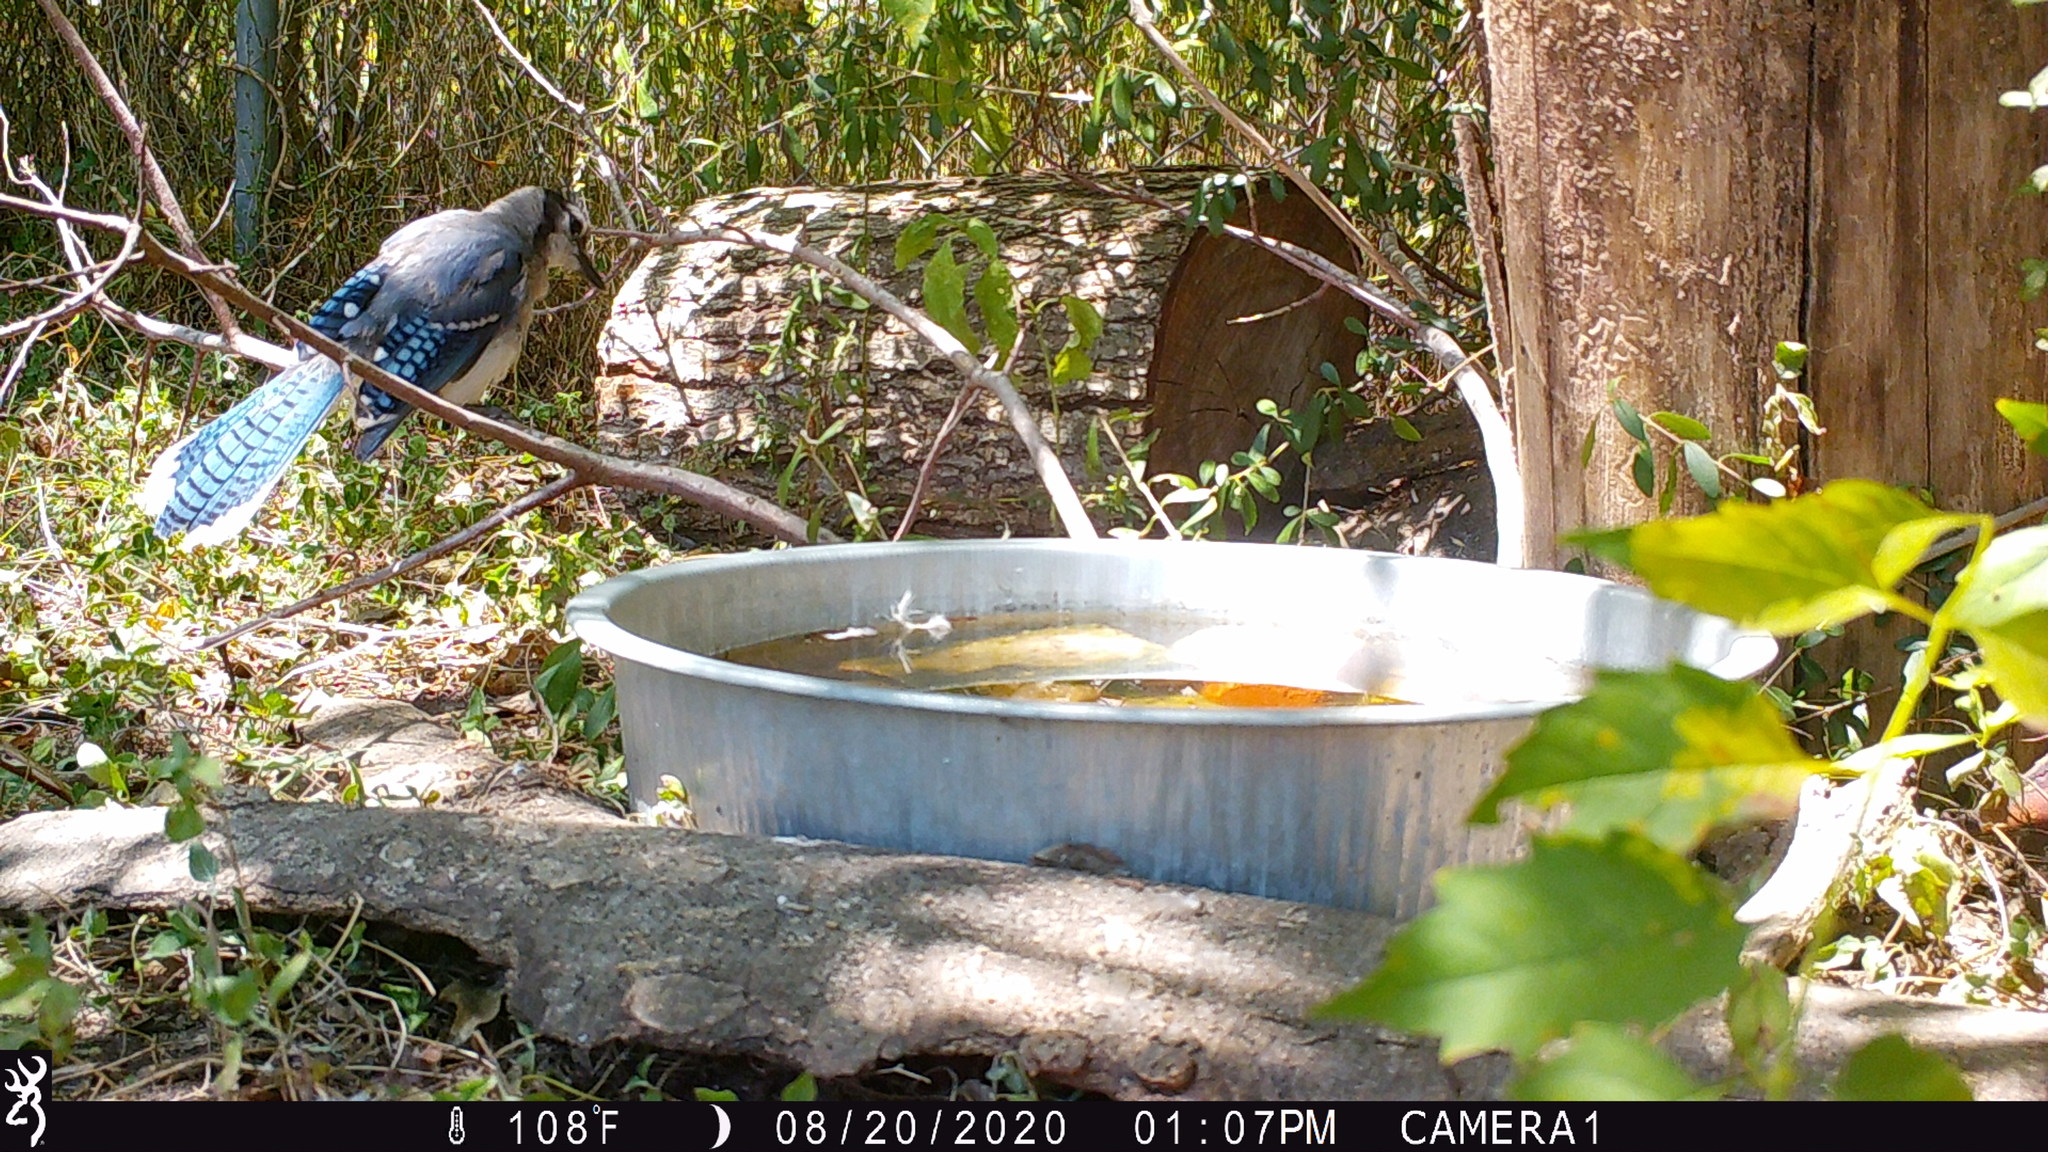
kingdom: Animalia
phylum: Chordata
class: Aves
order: Passeriformes
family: Corvidae
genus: Cyanocitta
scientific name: Cyanocitta cristata
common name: Blue jay
